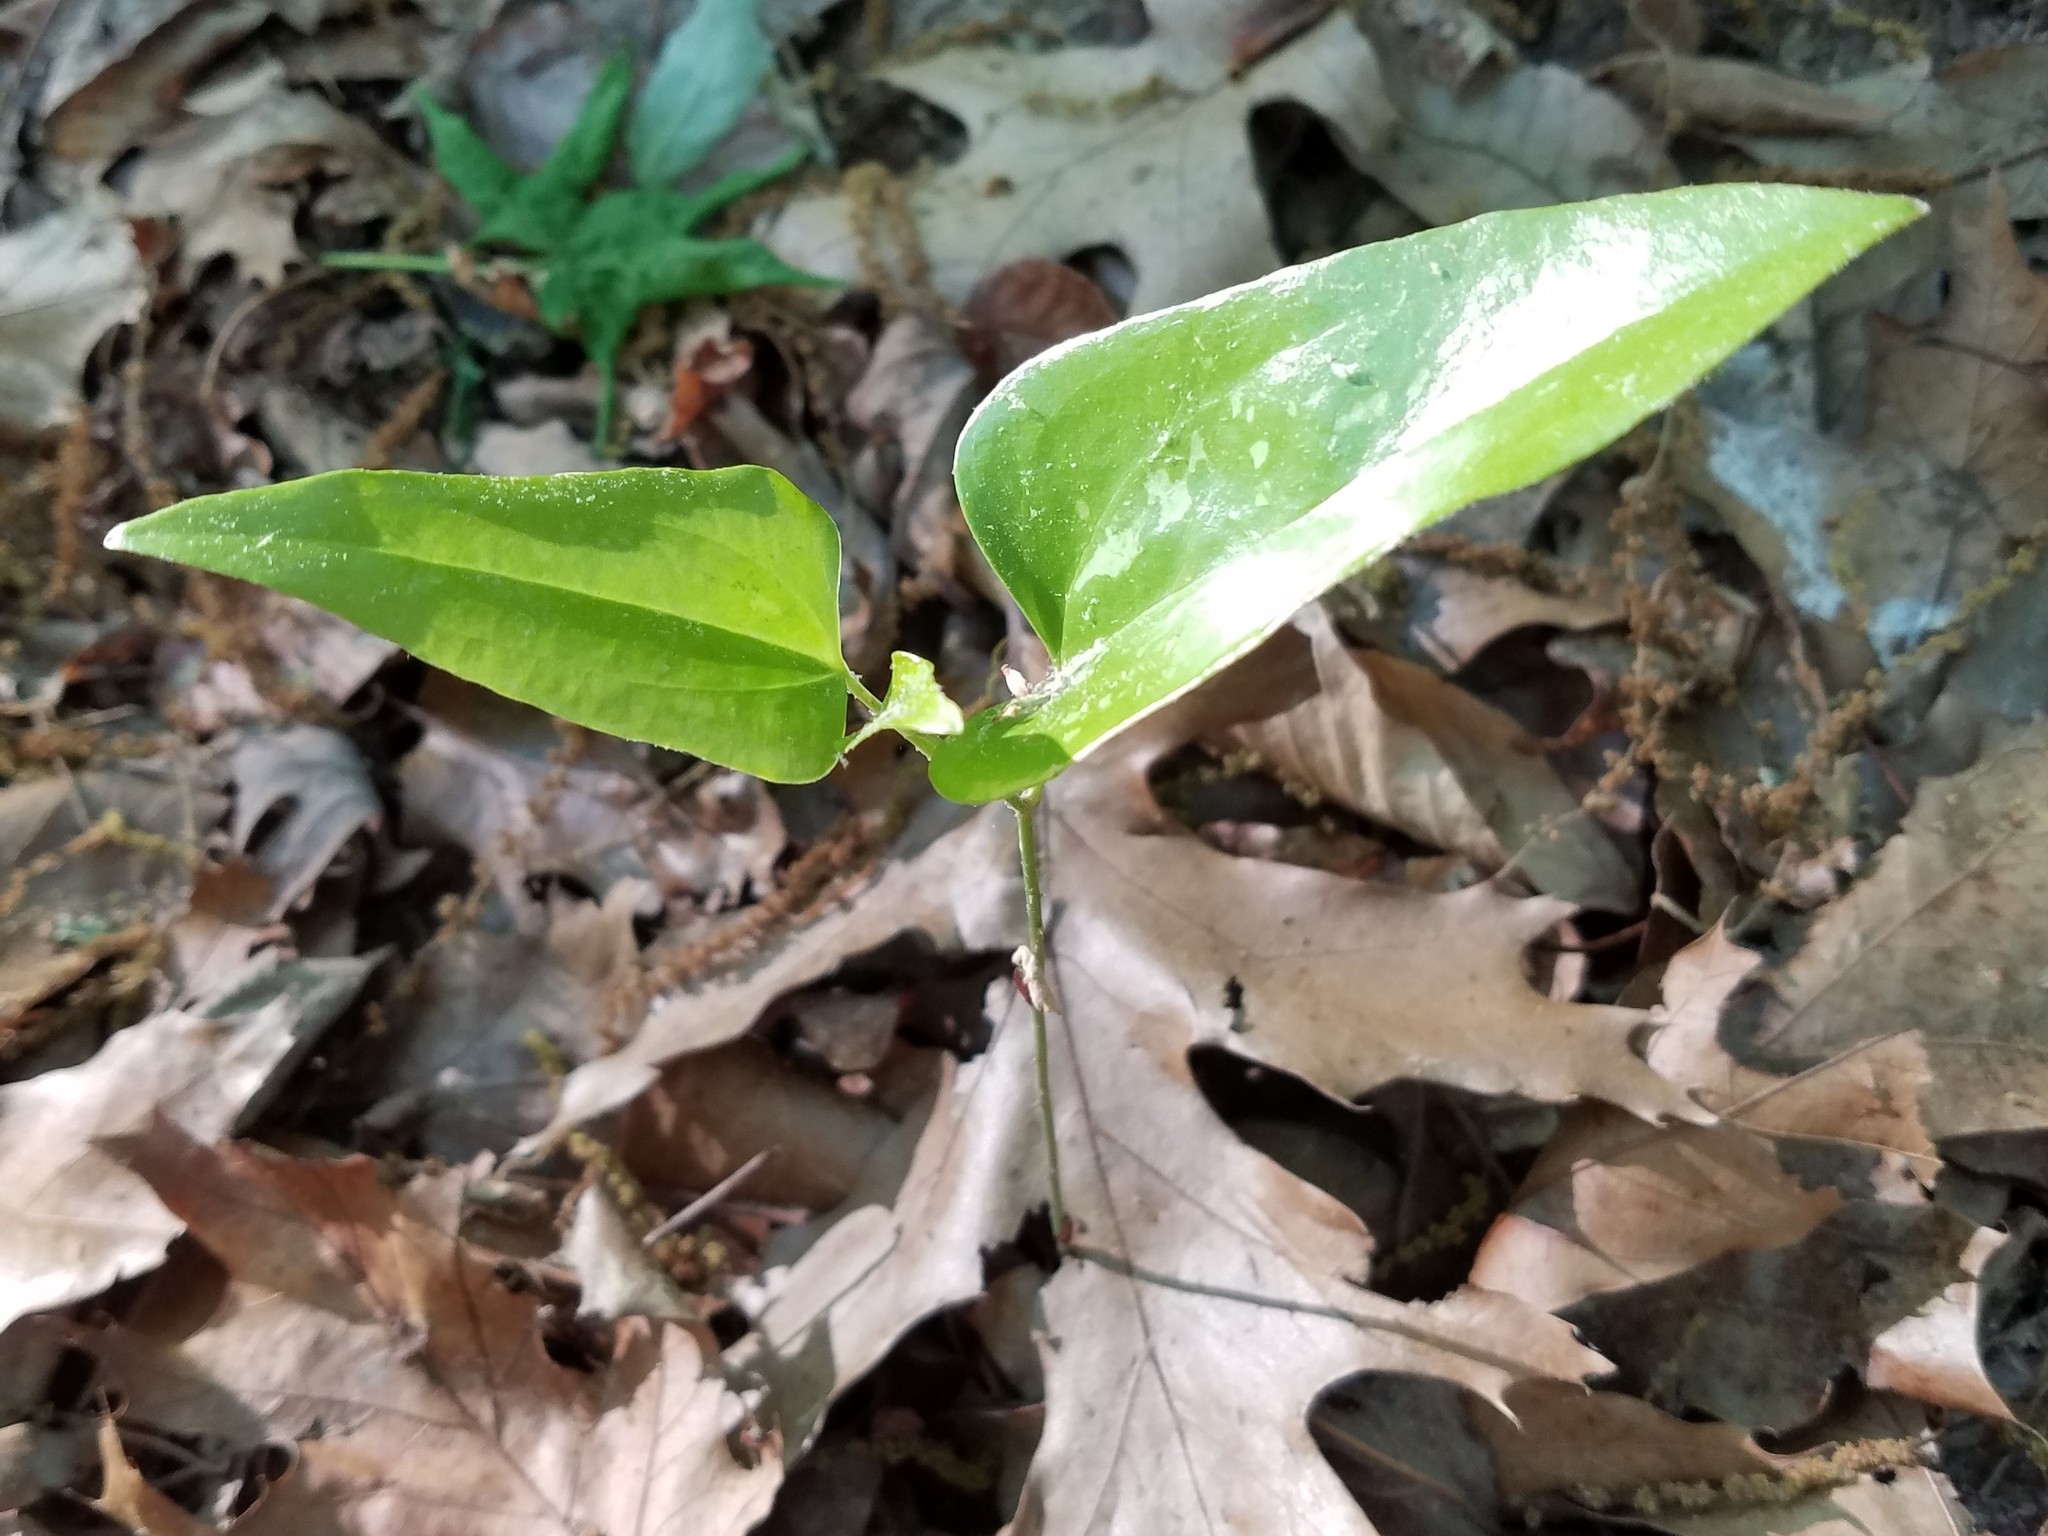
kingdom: Plantae
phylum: Tracheophyta
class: Liliopsida
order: Liliales
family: Smilacaceae
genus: Smilax
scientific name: Smilax maritima
